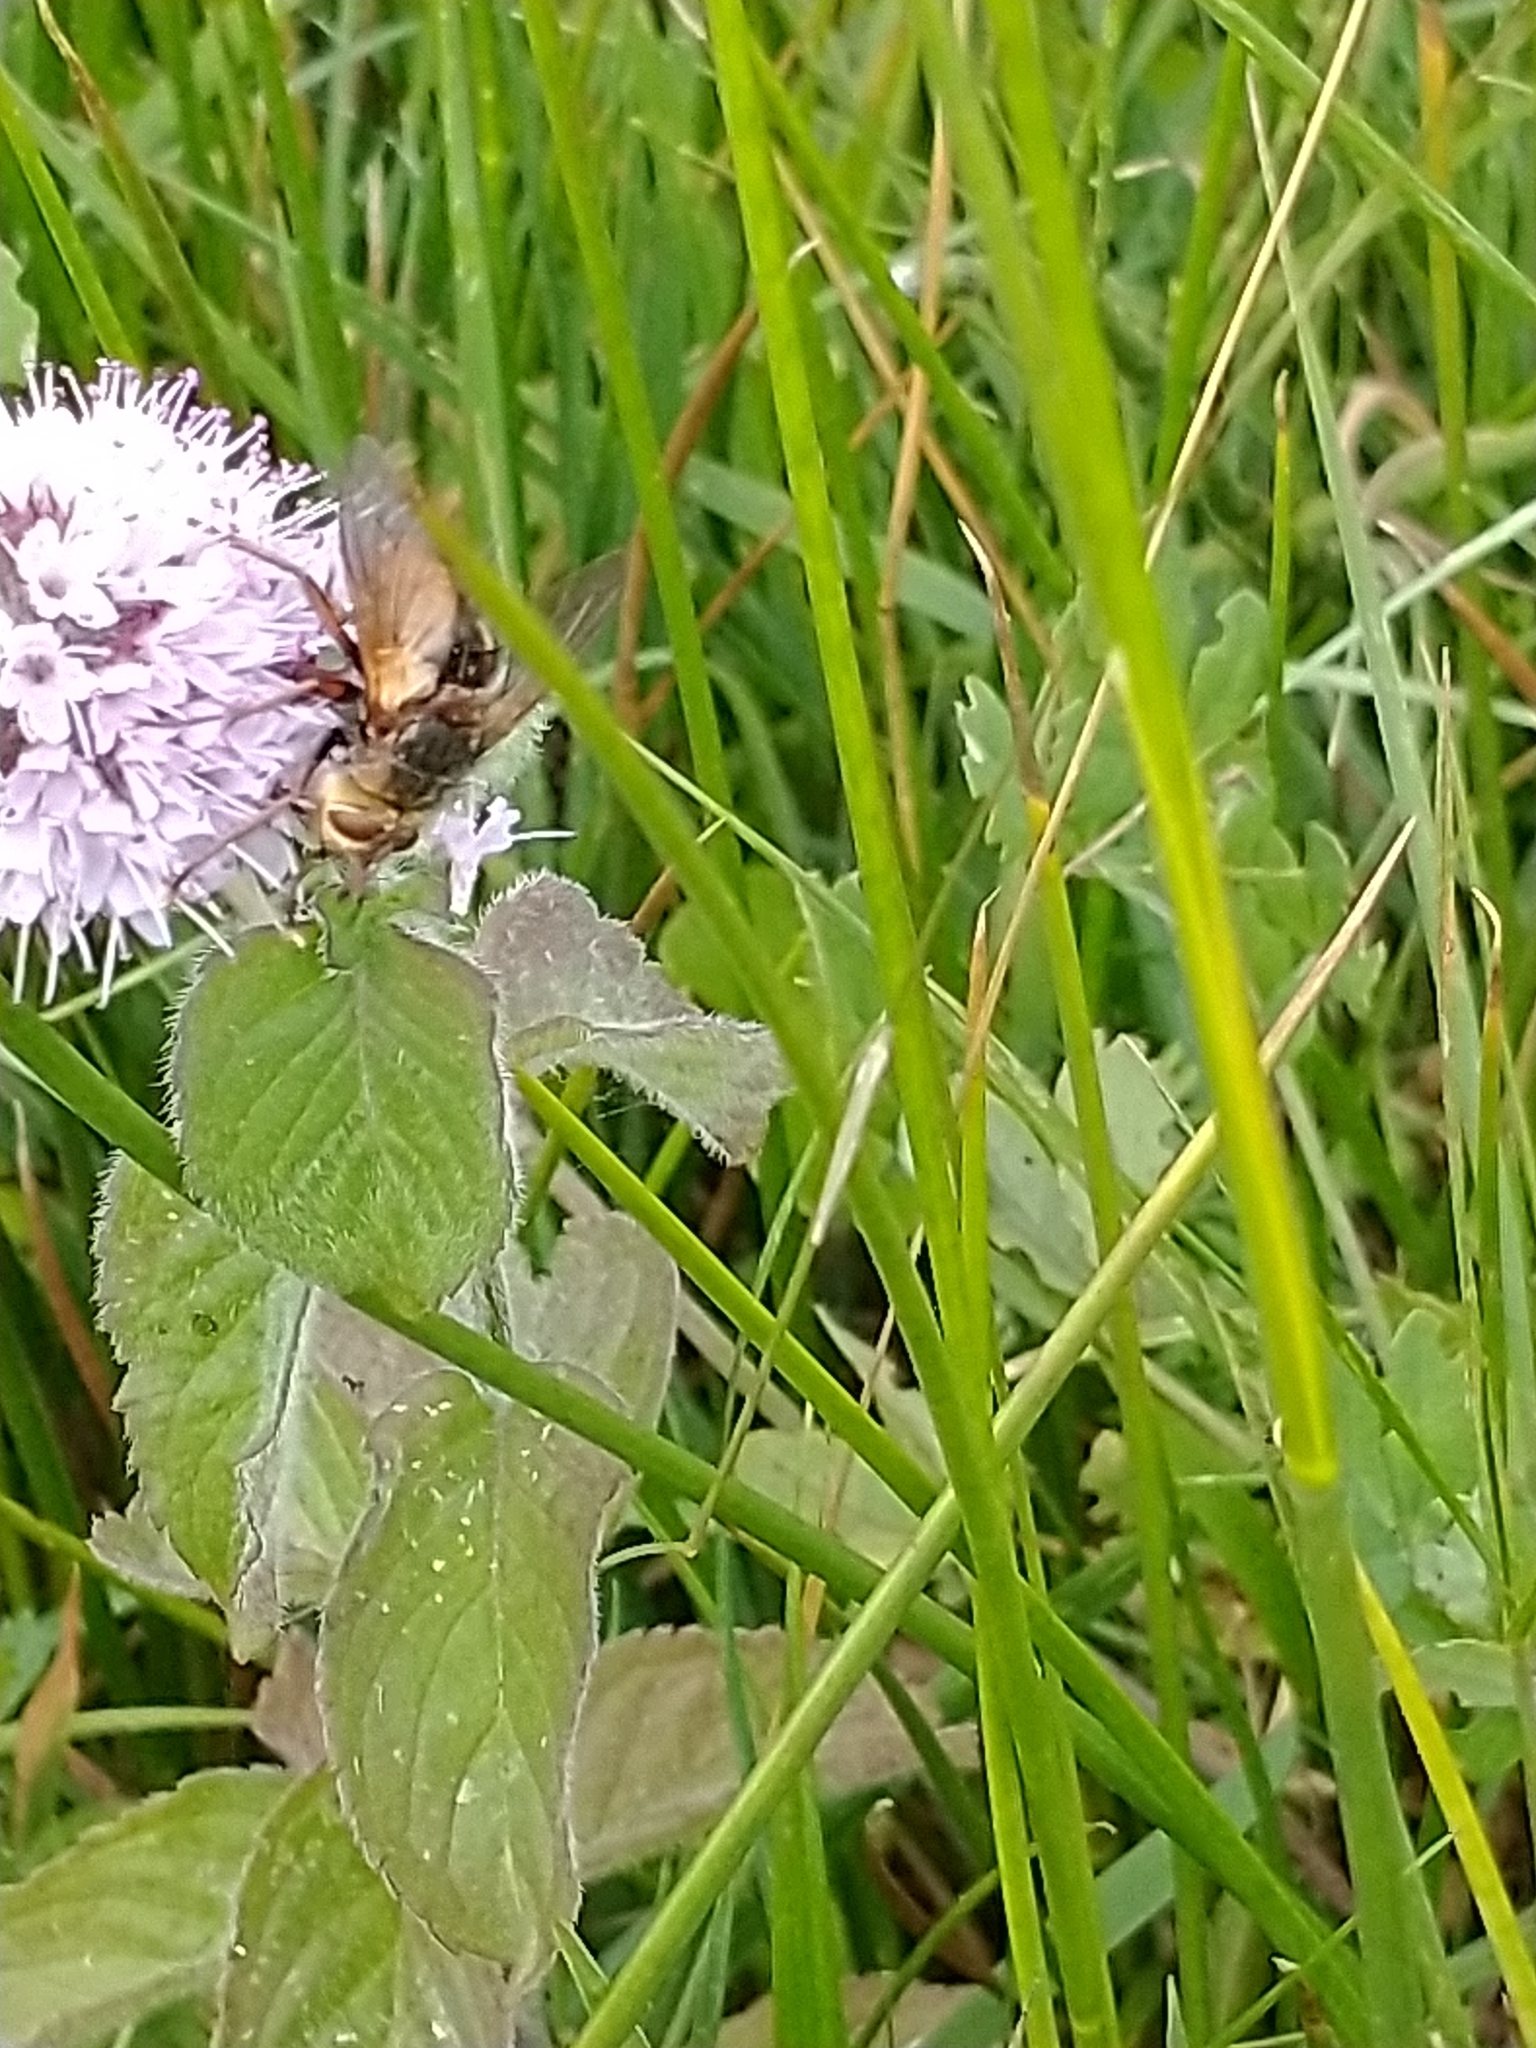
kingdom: Animalia
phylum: Arthropoda
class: Insecta
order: Diptera
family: Tachinidae
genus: Tachina
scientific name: Tachina fera
